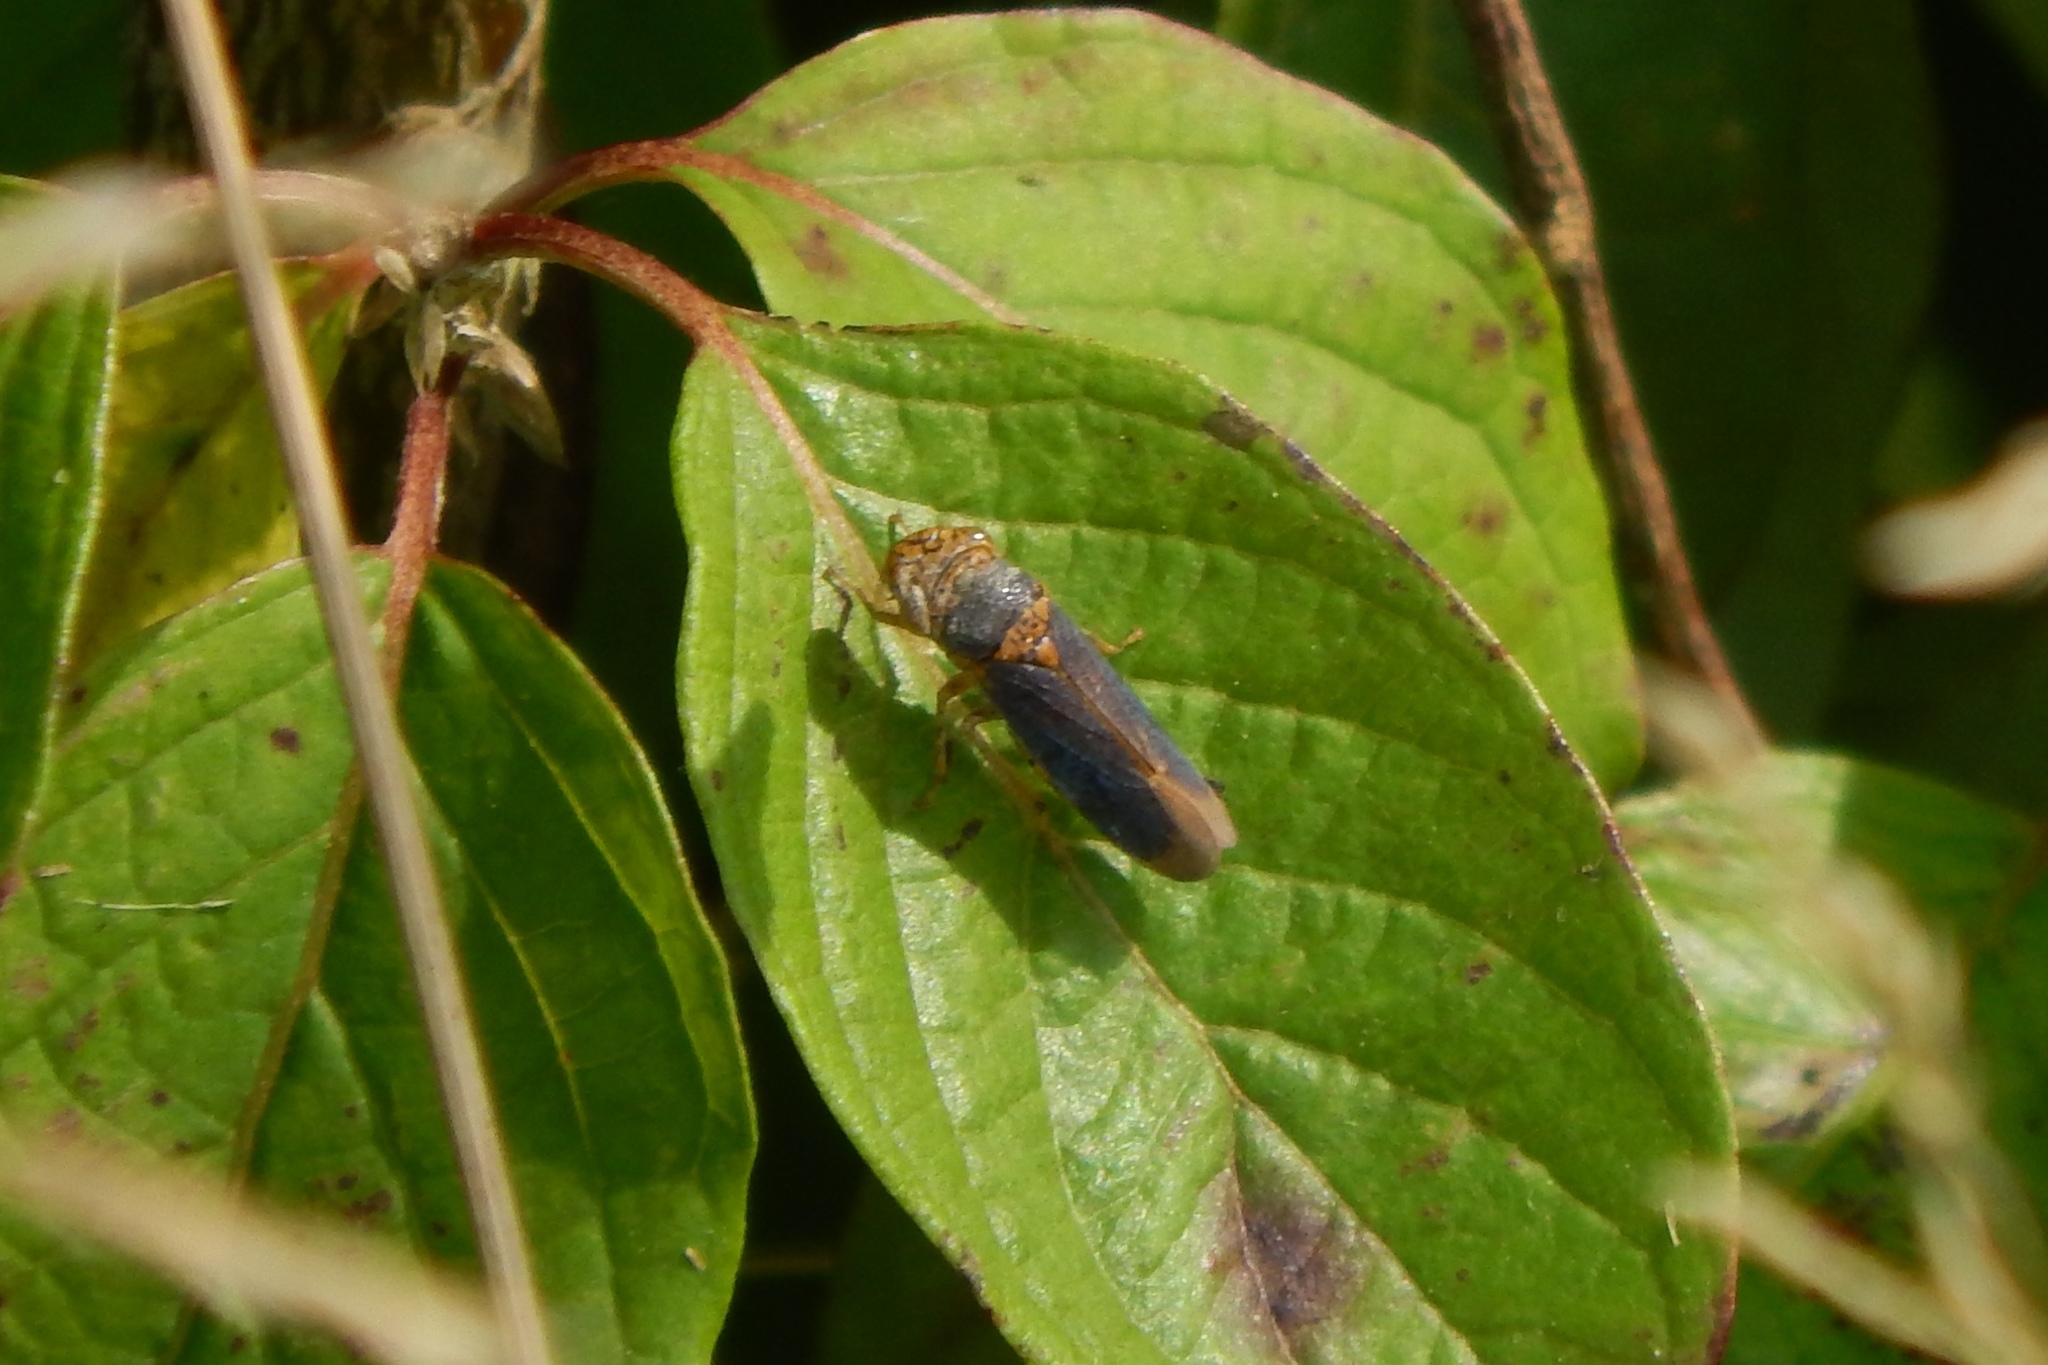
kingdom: Animalia
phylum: Arthropoda
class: Insecta
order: Hemiptera
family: Cicadellidae
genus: Oncometopia
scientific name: Oncometopia orbona
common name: Broad-headed sharpshooter
